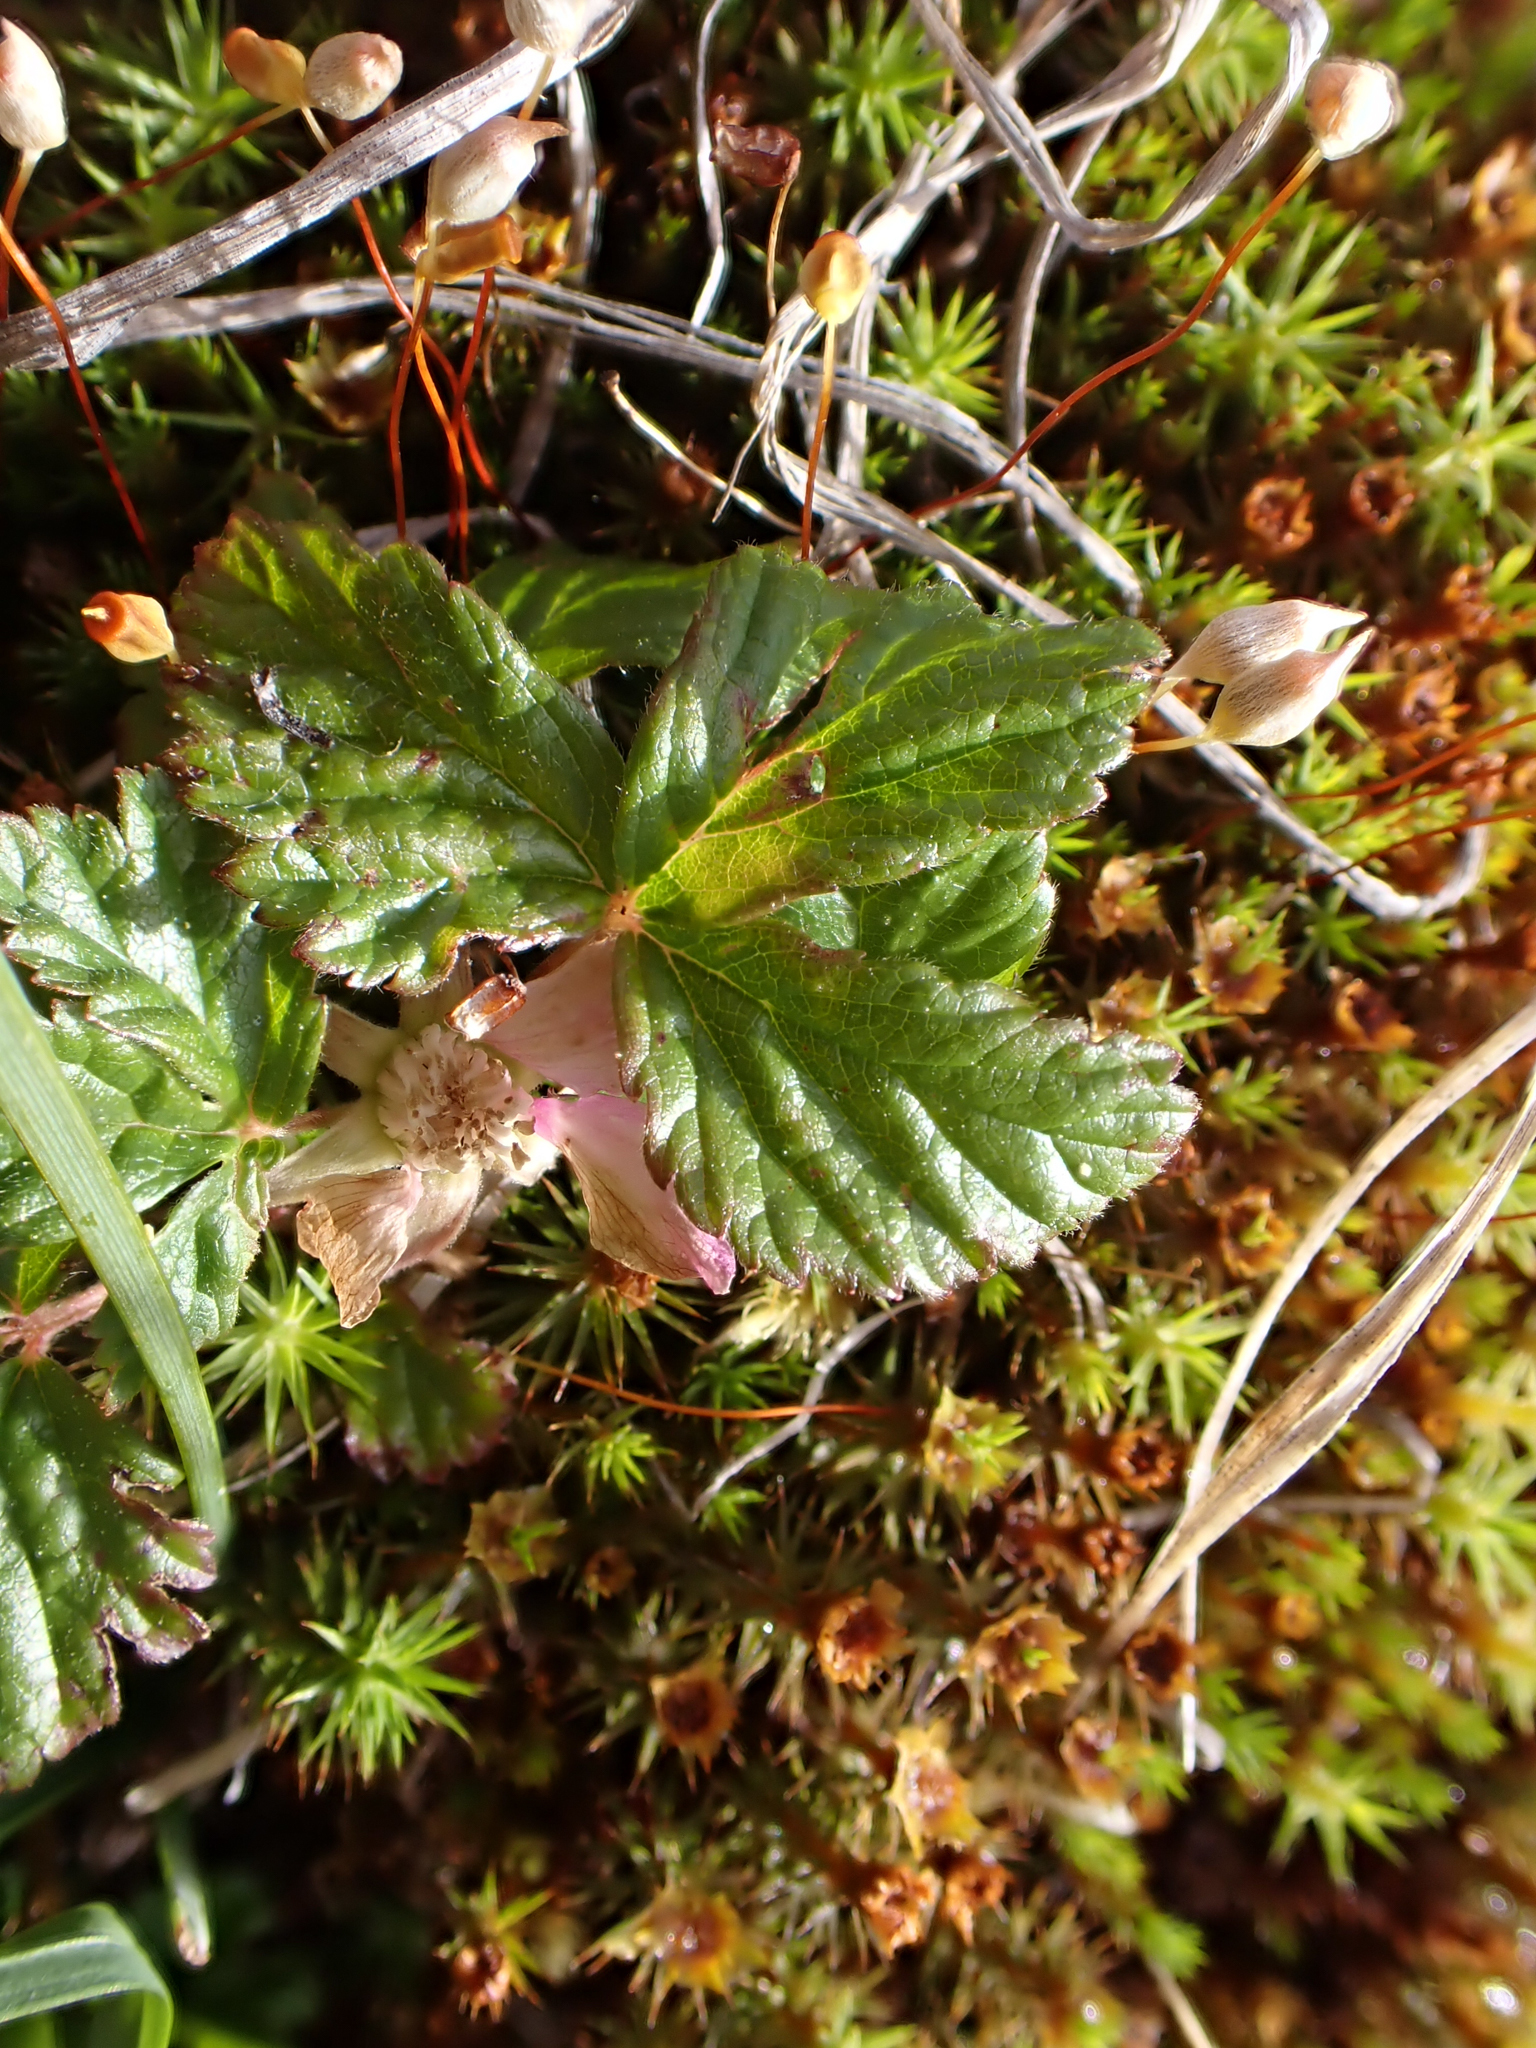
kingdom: Plantae
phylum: Tracheophyta
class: Magnoliopsida
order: Rosales
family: Rosaceae
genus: Rubus
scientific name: Rubus arcticus
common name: Arctic bramble
